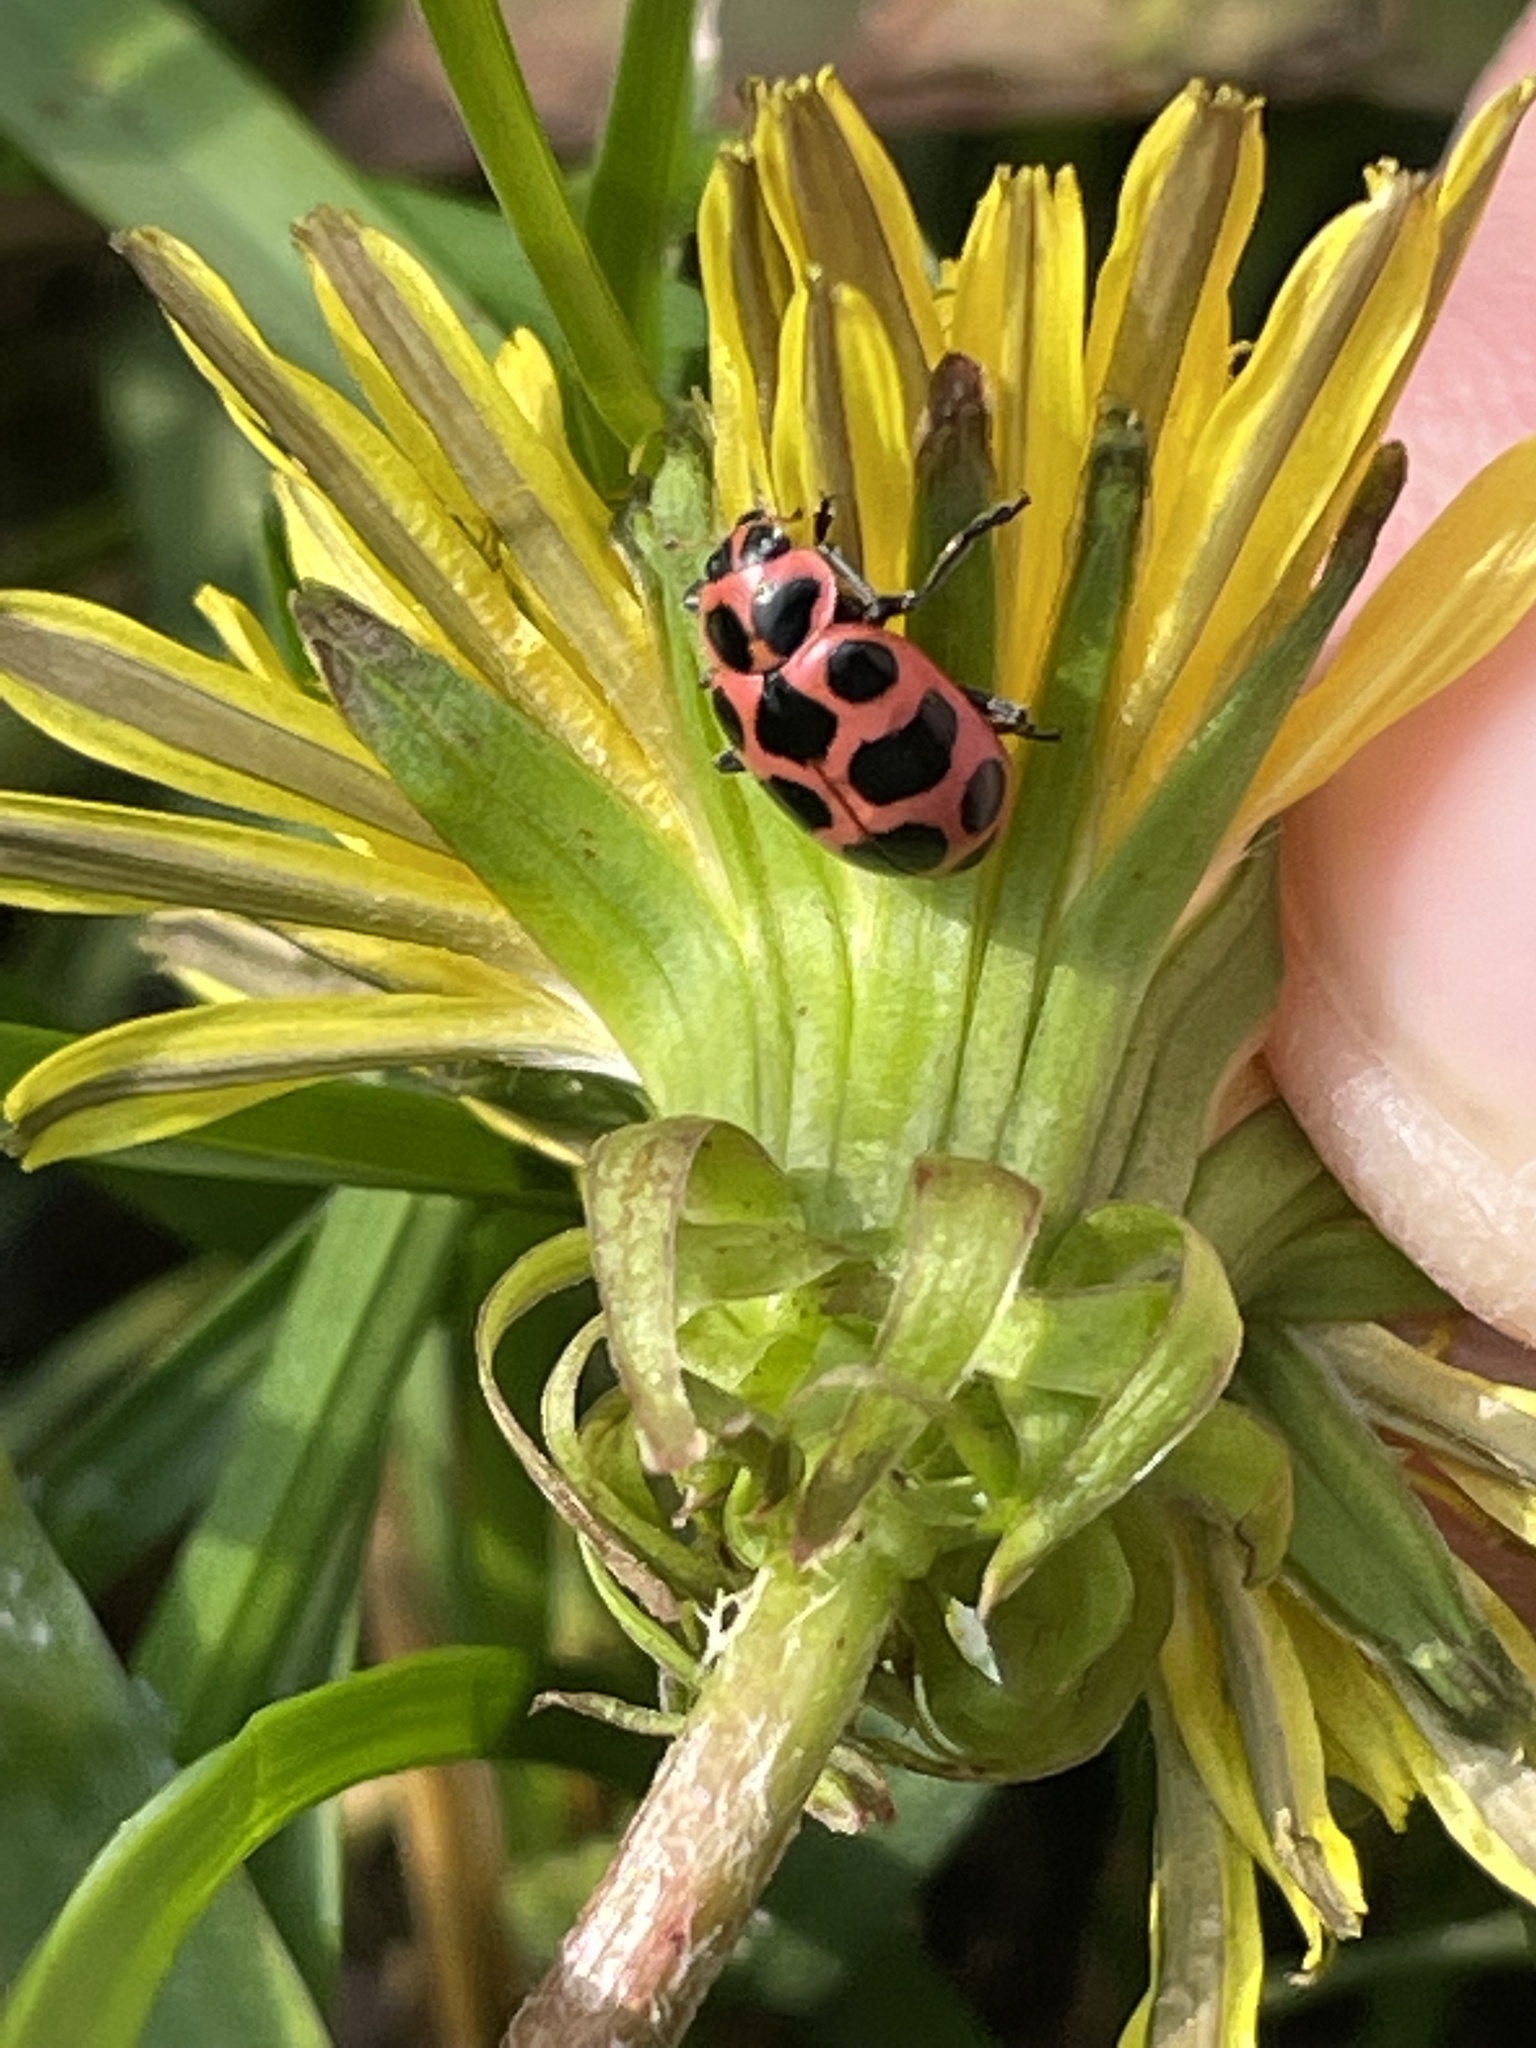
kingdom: Animalia
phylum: Arthropoda
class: Insecta
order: Coleoptera
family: Coccinellidae
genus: Coleomegilla
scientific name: Coleomegilla maculata
